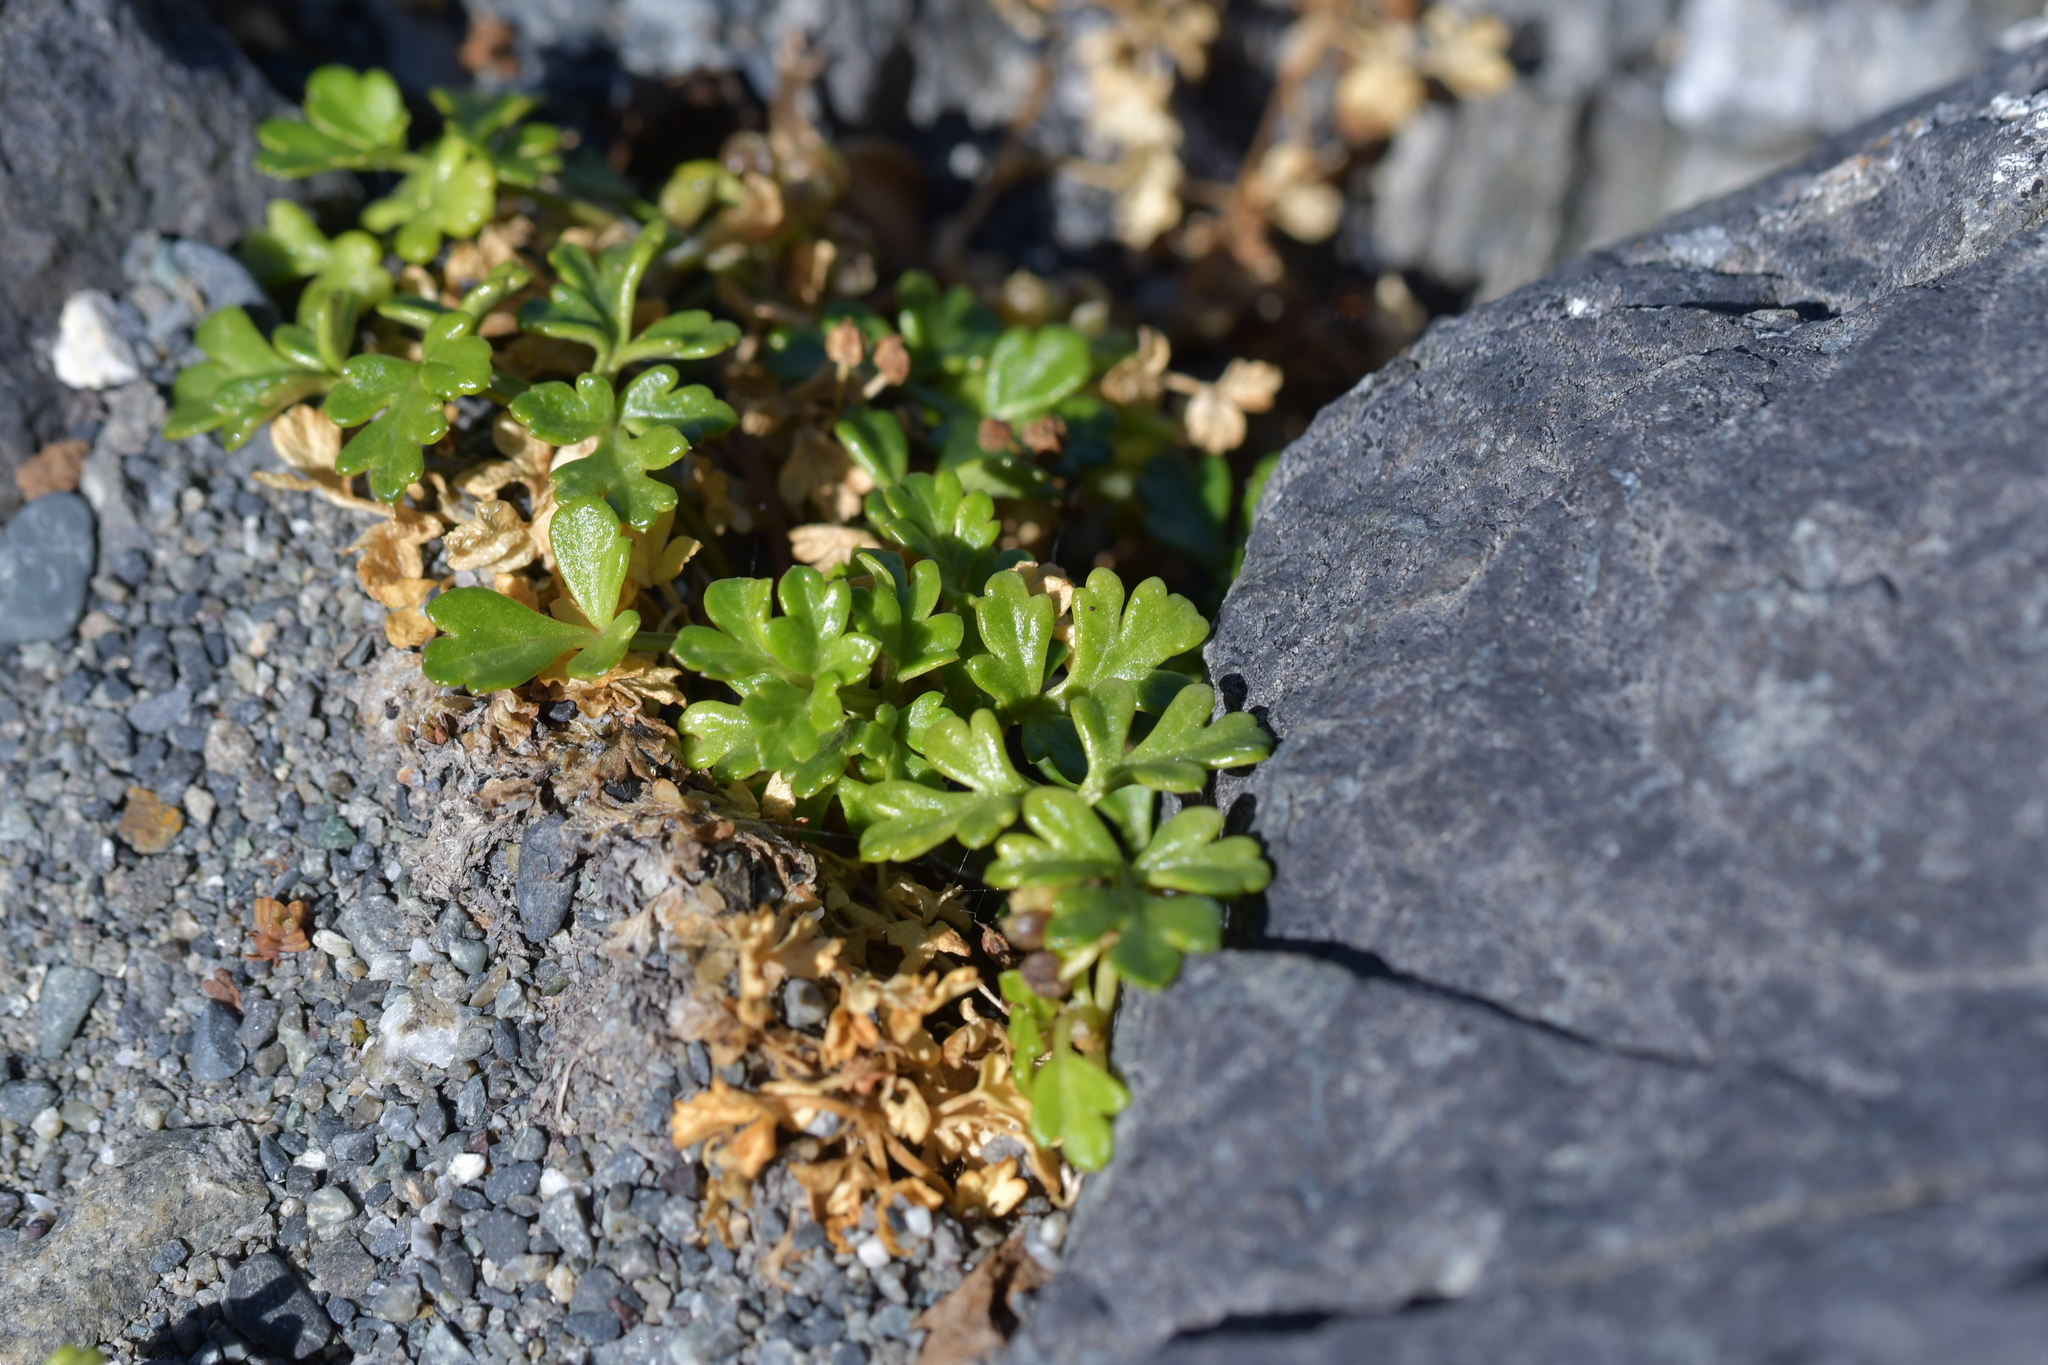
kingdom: Plantae
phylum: Tracheophyta
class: Polypodiopsida
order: Polypodiales
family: Aspleniaceae
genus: Asplenium
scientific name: Asplenium appendiculatum
